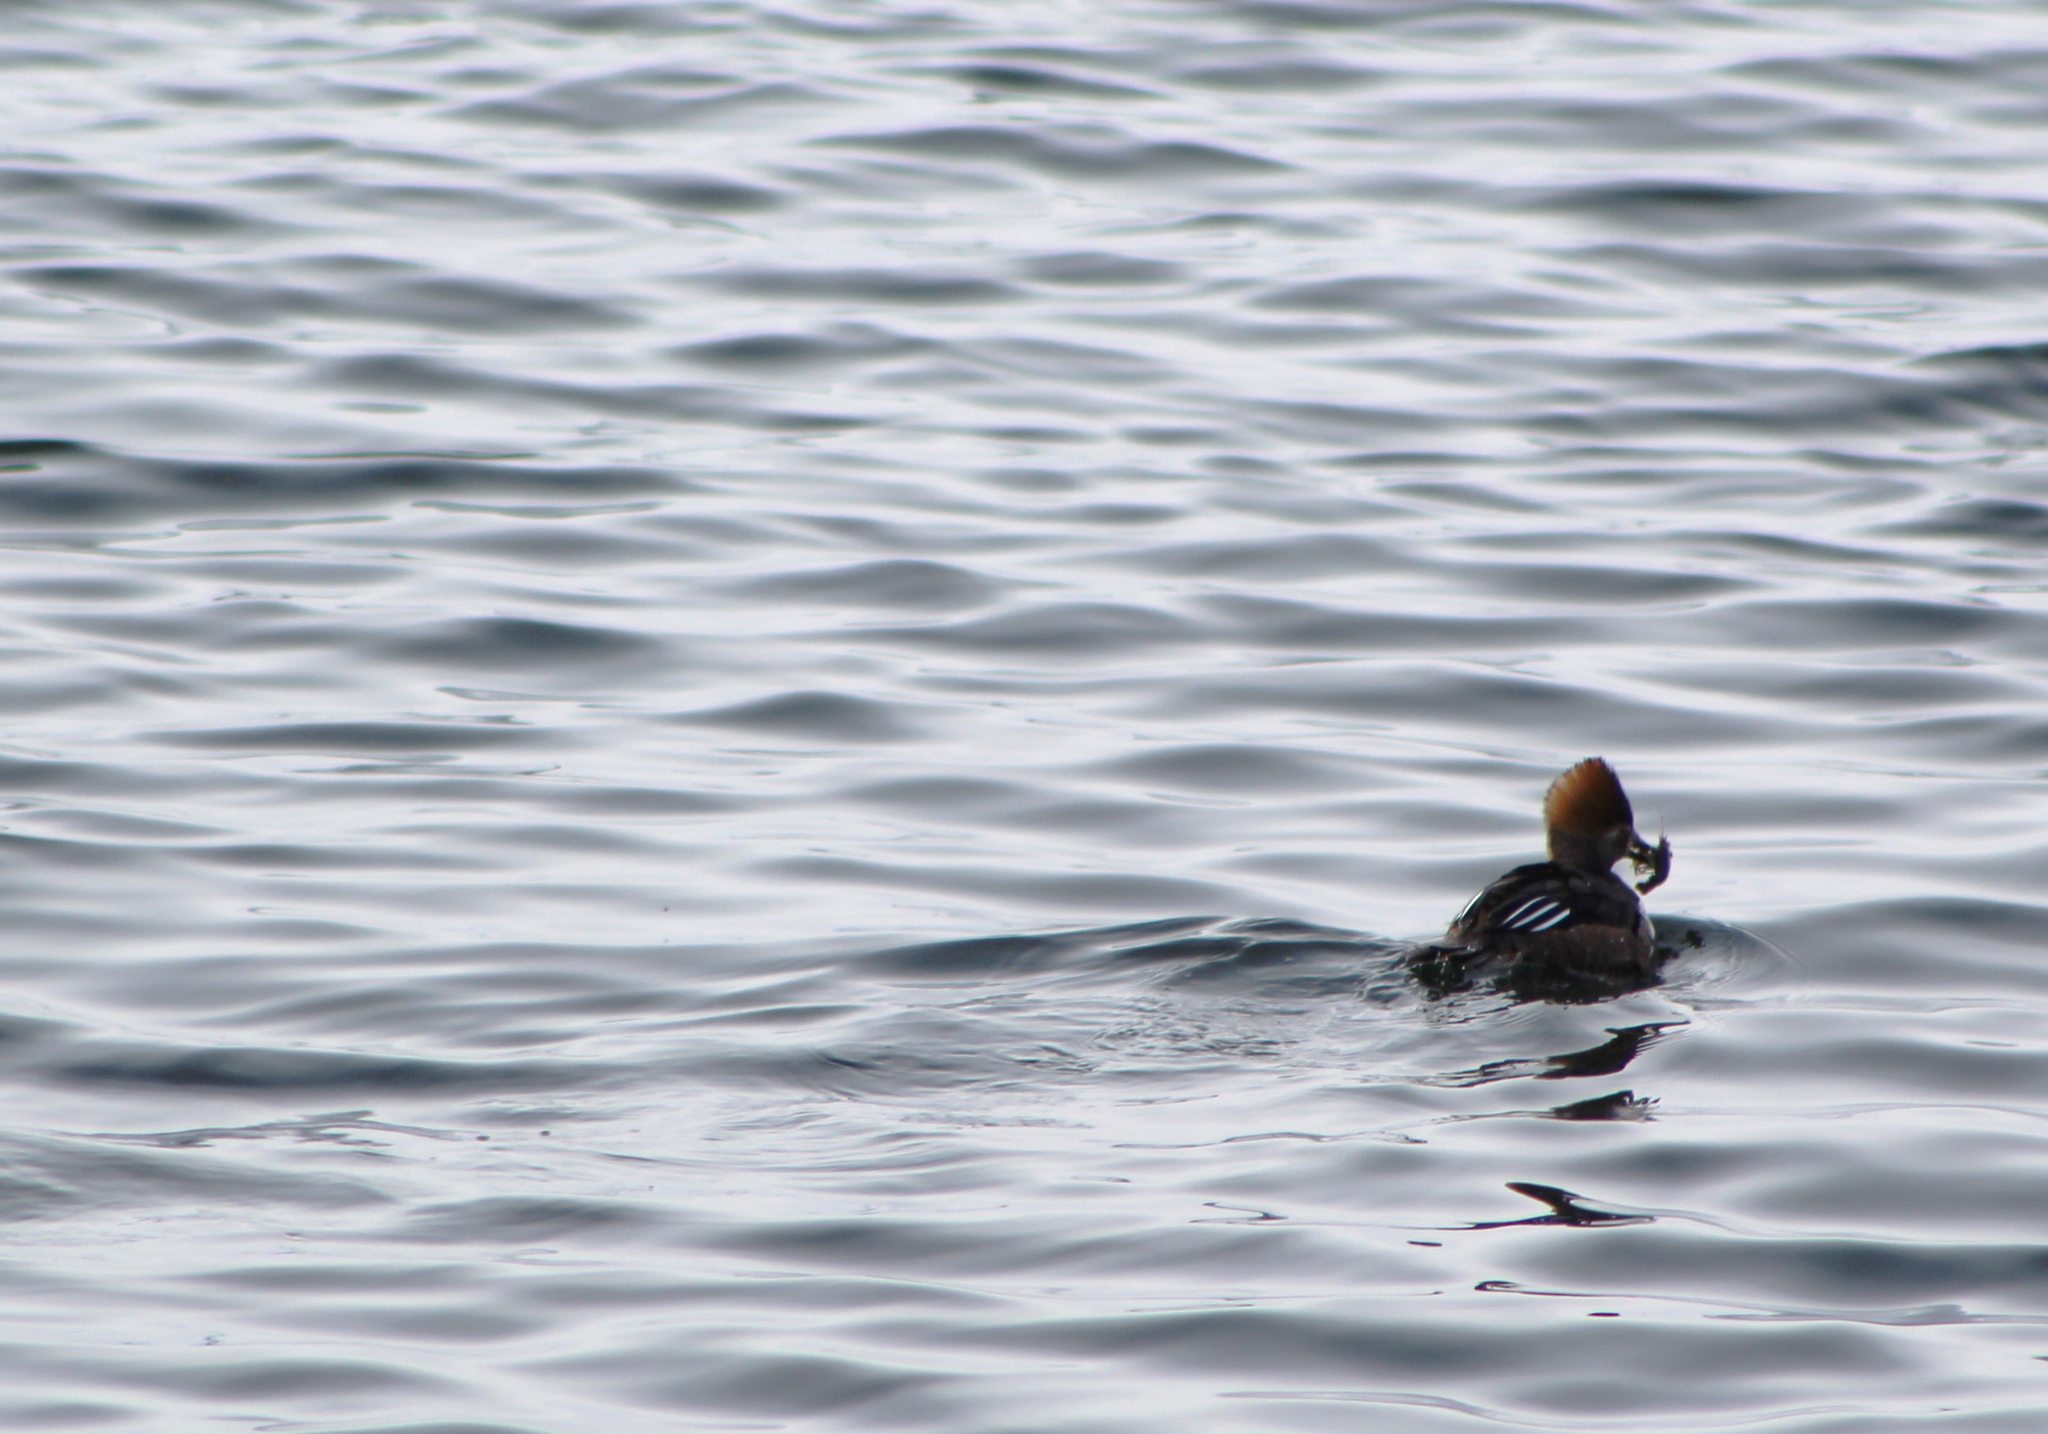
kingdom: Animalia
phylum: Chordata
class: Aves
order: Anseriformes
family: Anatidae
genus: Lophodytes
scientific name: Lophodytes cucullatus
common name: Hooded merganser
